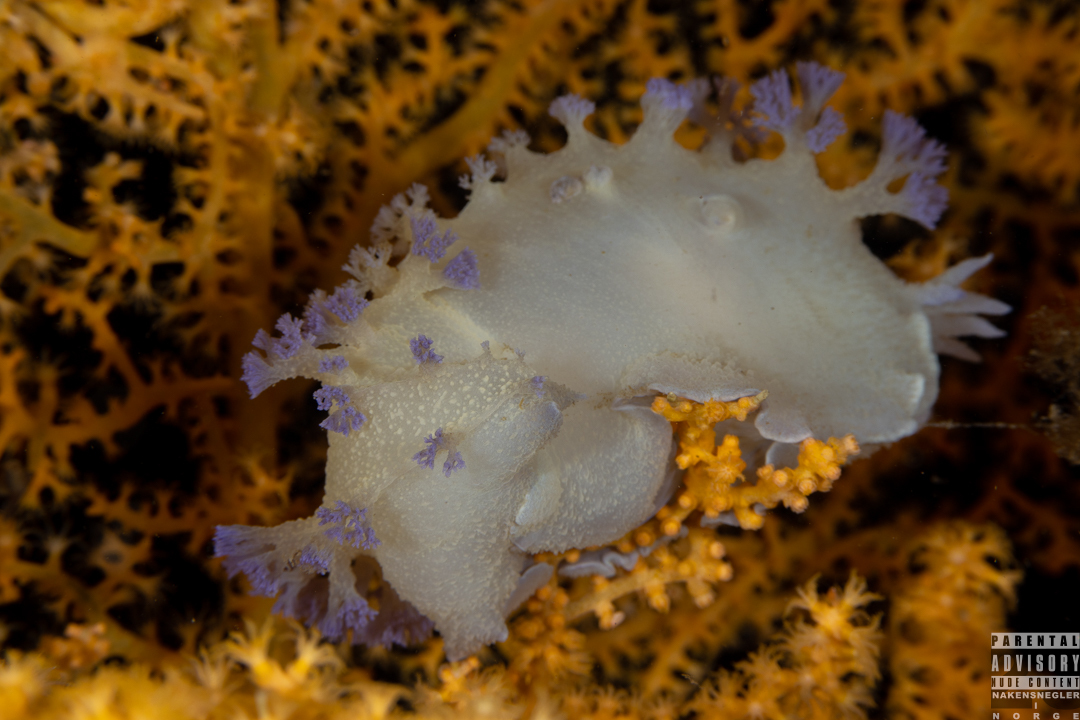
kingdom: Animalia
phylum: Mollusca
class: Gastropoda
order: Nudibranchia
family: Tritoniidae
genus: Tritonia
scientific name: Tritonia griegi
